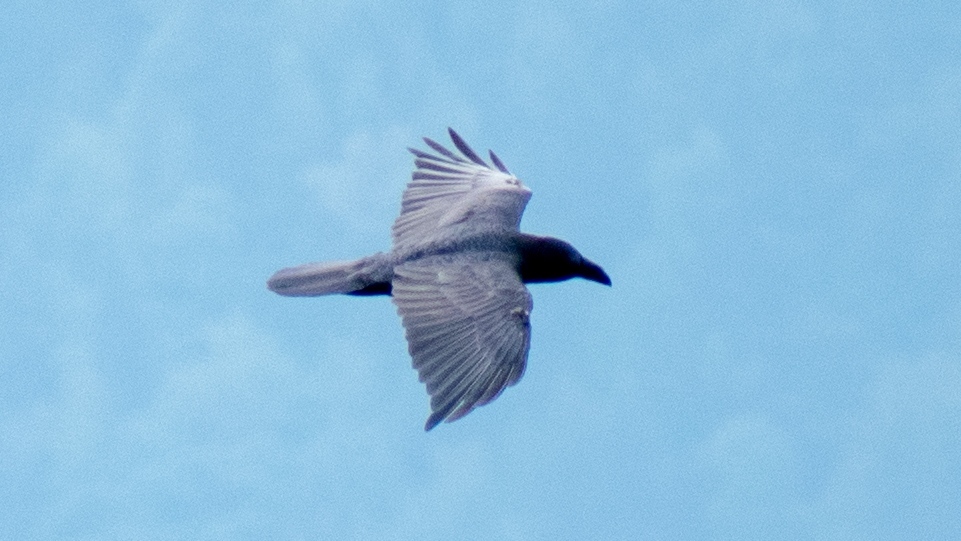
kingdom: Animalia
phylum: Chordata
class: Aves
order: Passeriformes
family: Corvidae
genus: Corvus
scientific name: Corvus corax
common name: Common raven
